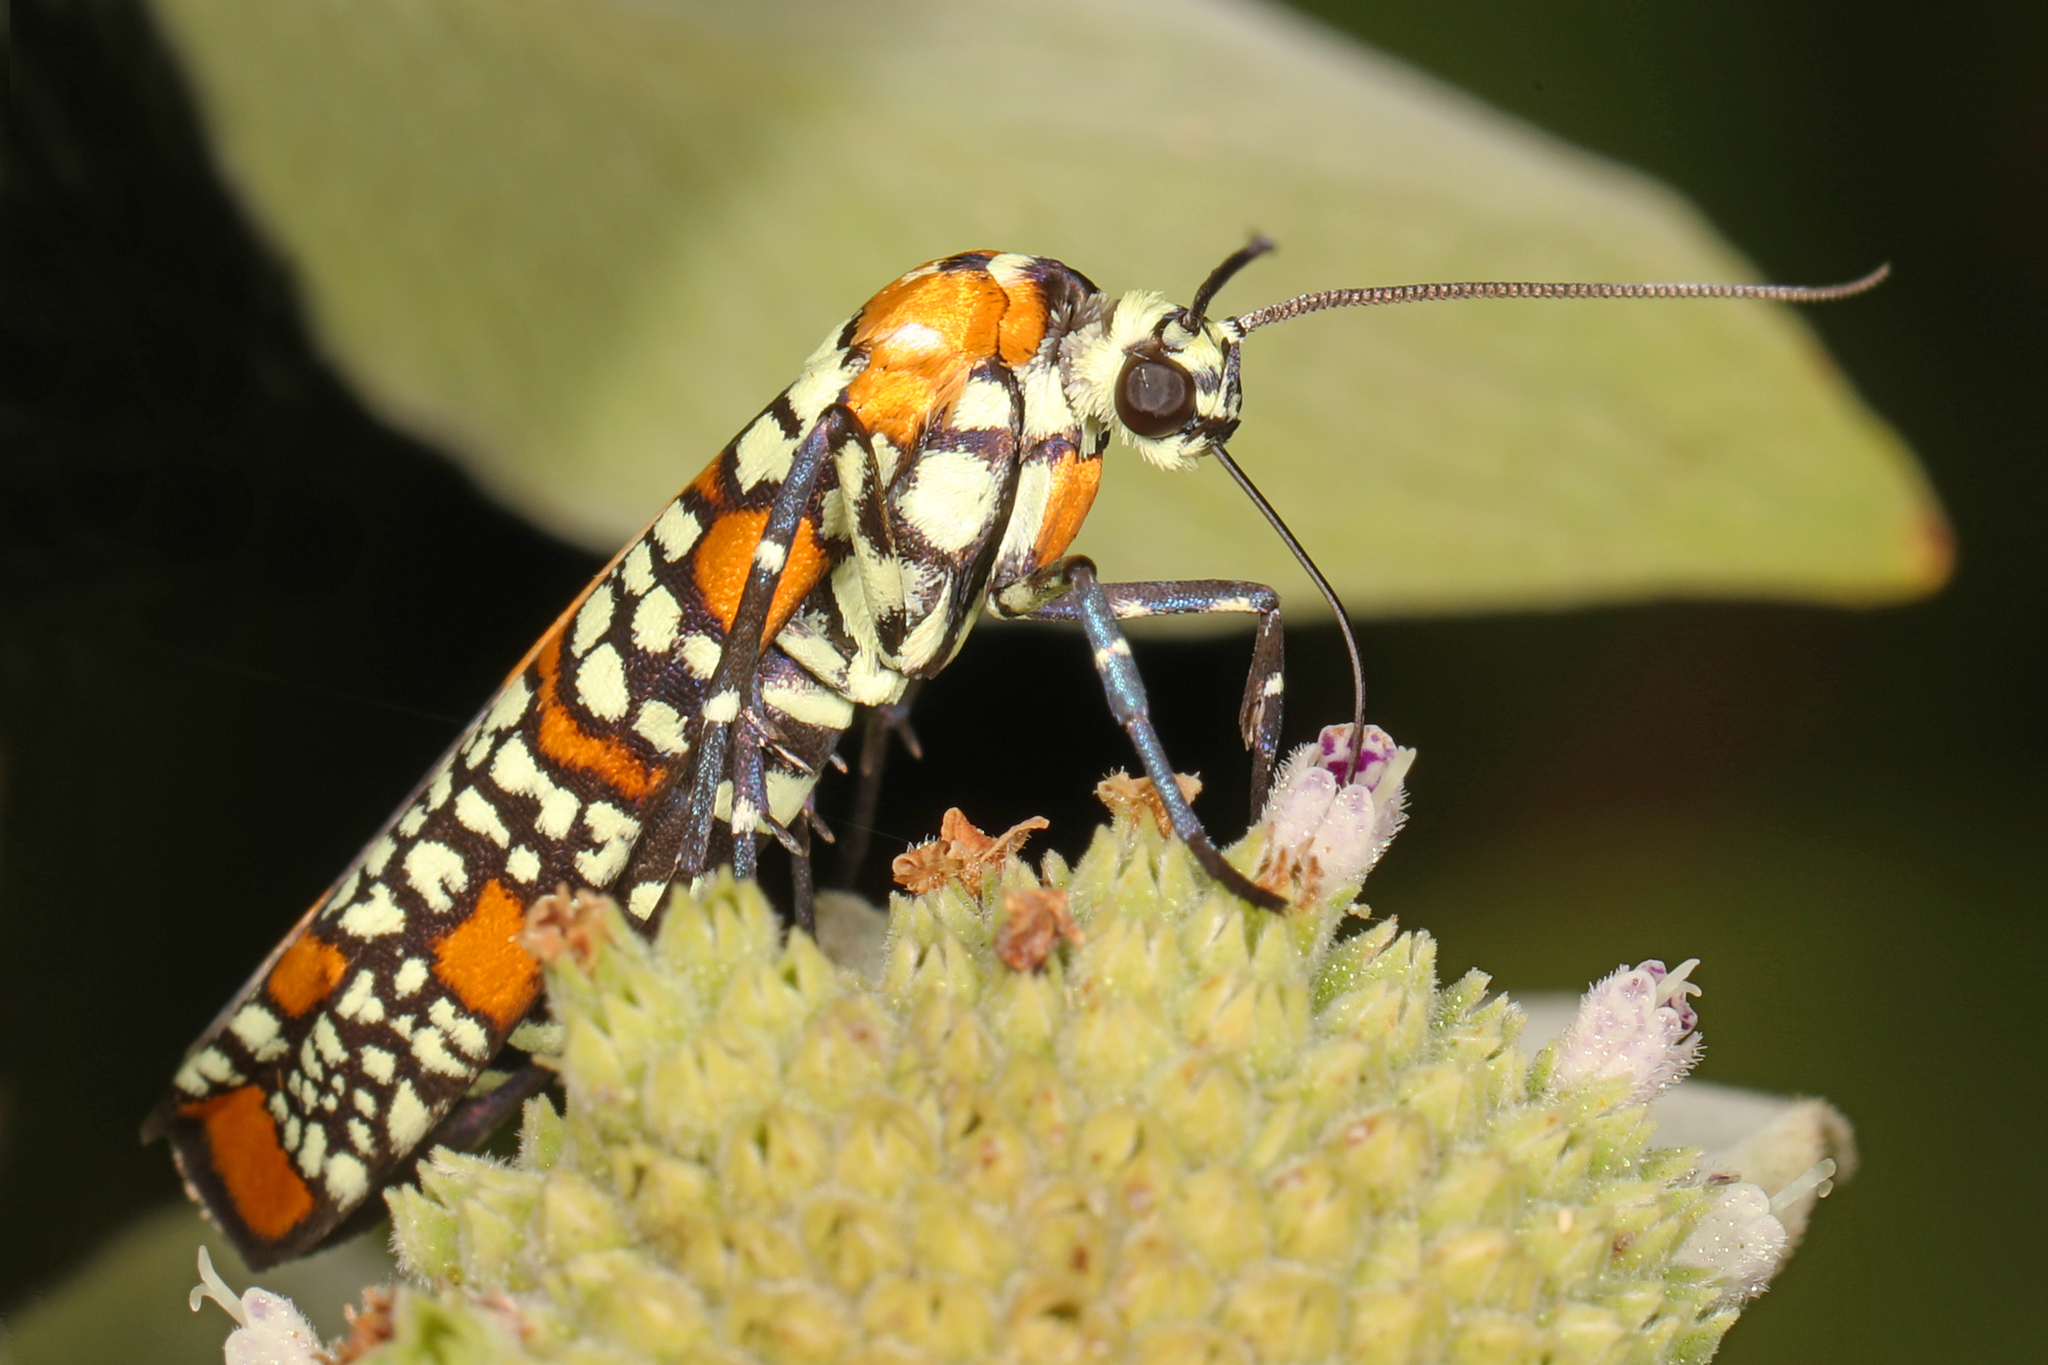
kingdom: Animalia
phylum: Arthropoda
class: Insecta
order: Lepidoptera
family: Attevidae
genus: Atteva
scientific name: Atteva punctella
